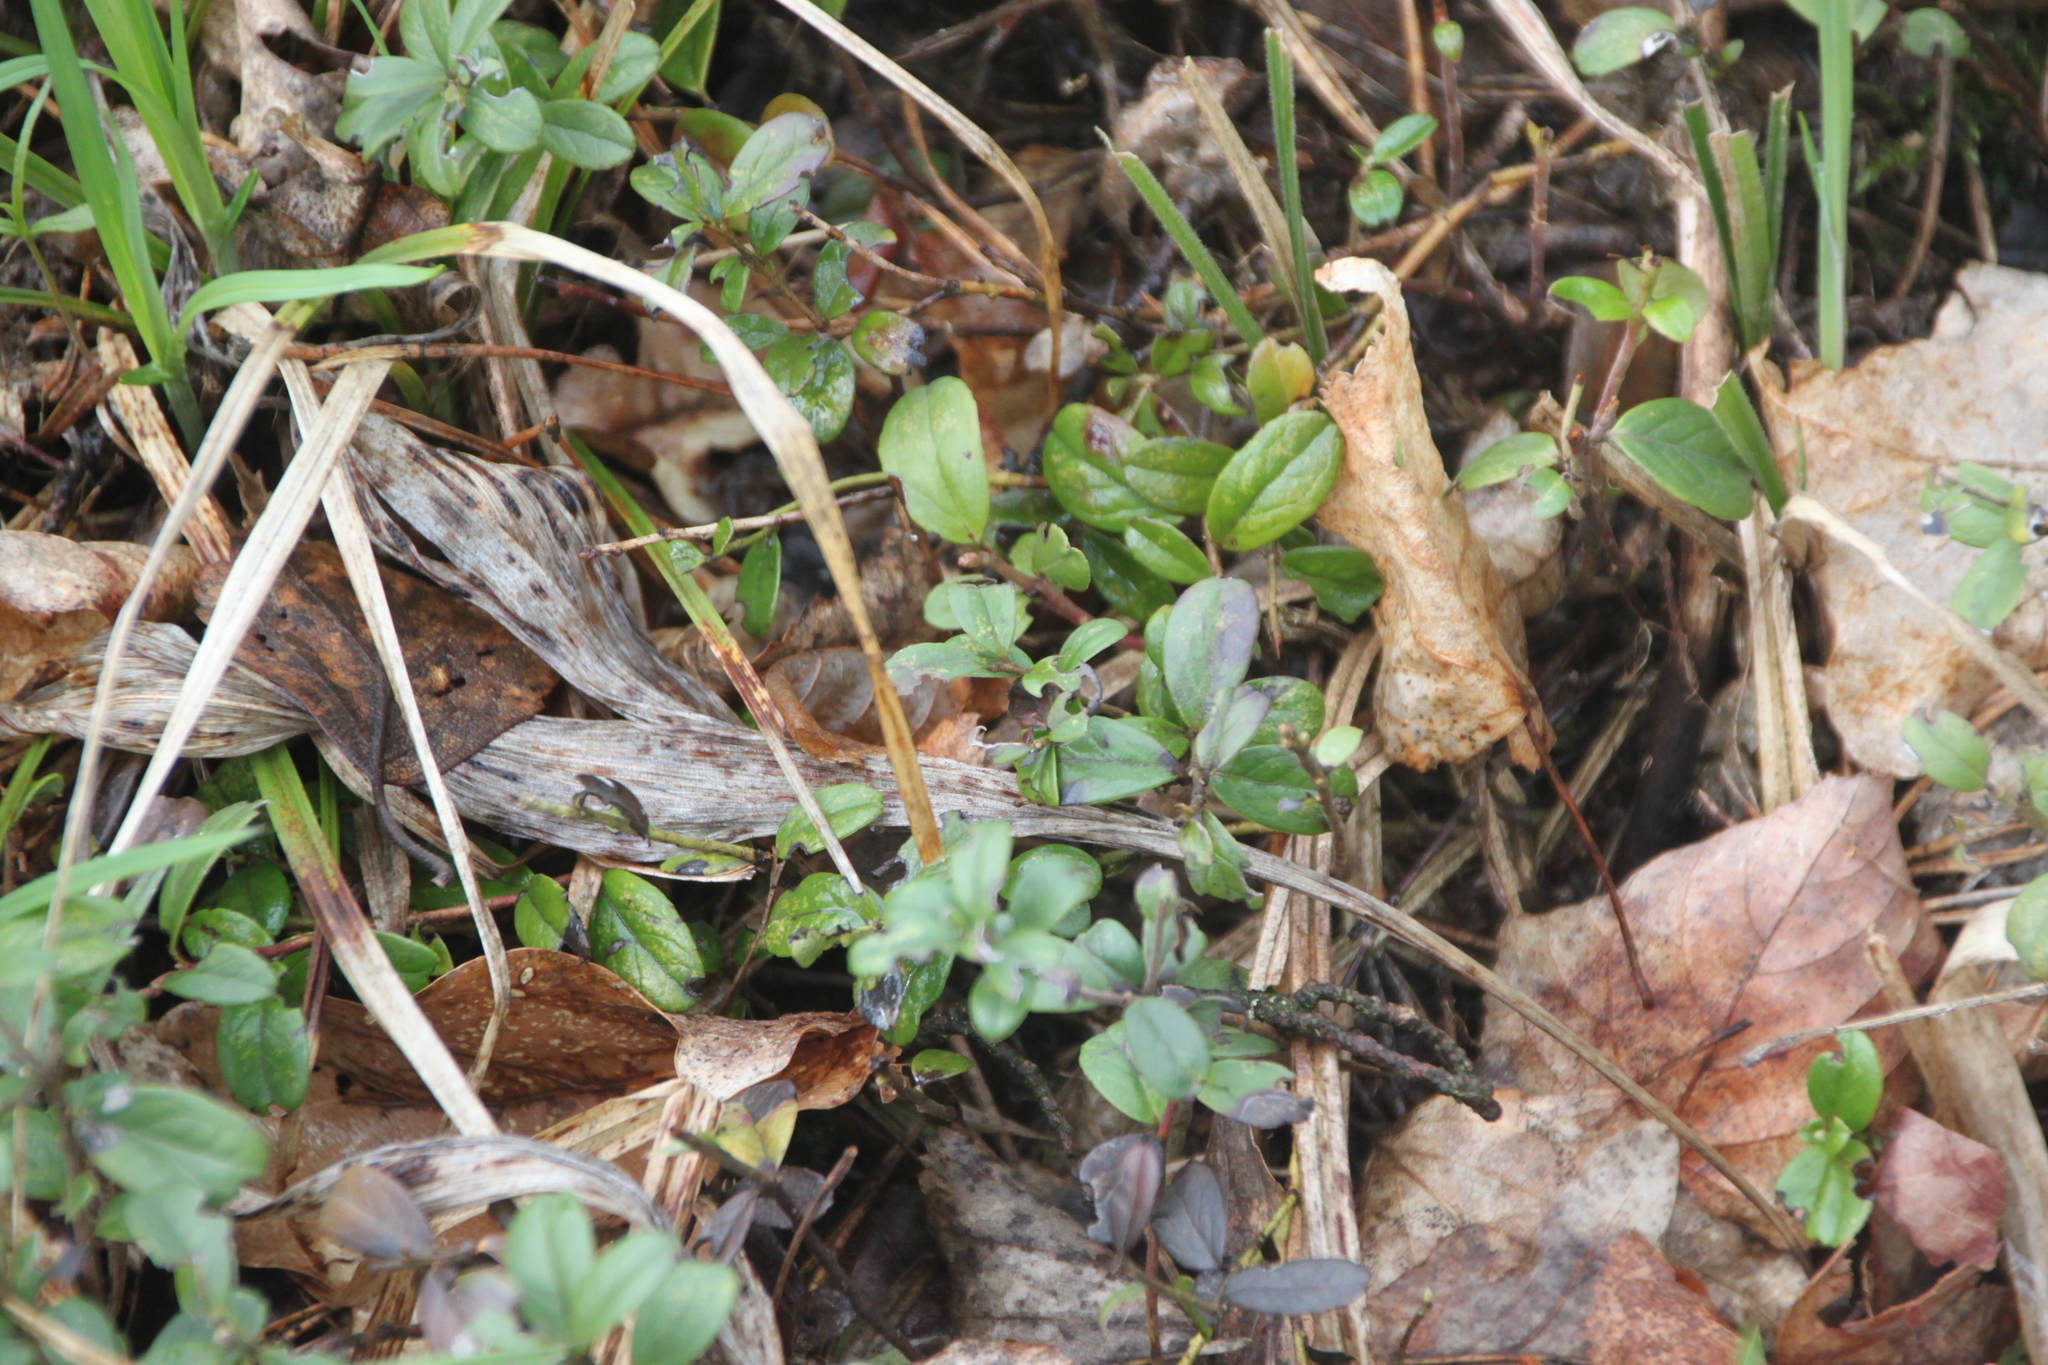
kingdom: Plantae
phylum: Tracheophyta
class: Magnoliopsida
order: Ericales
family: Ericaceae
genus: Vaccinium
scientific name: Vaccinium vitis-idaea
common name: Cowberry
